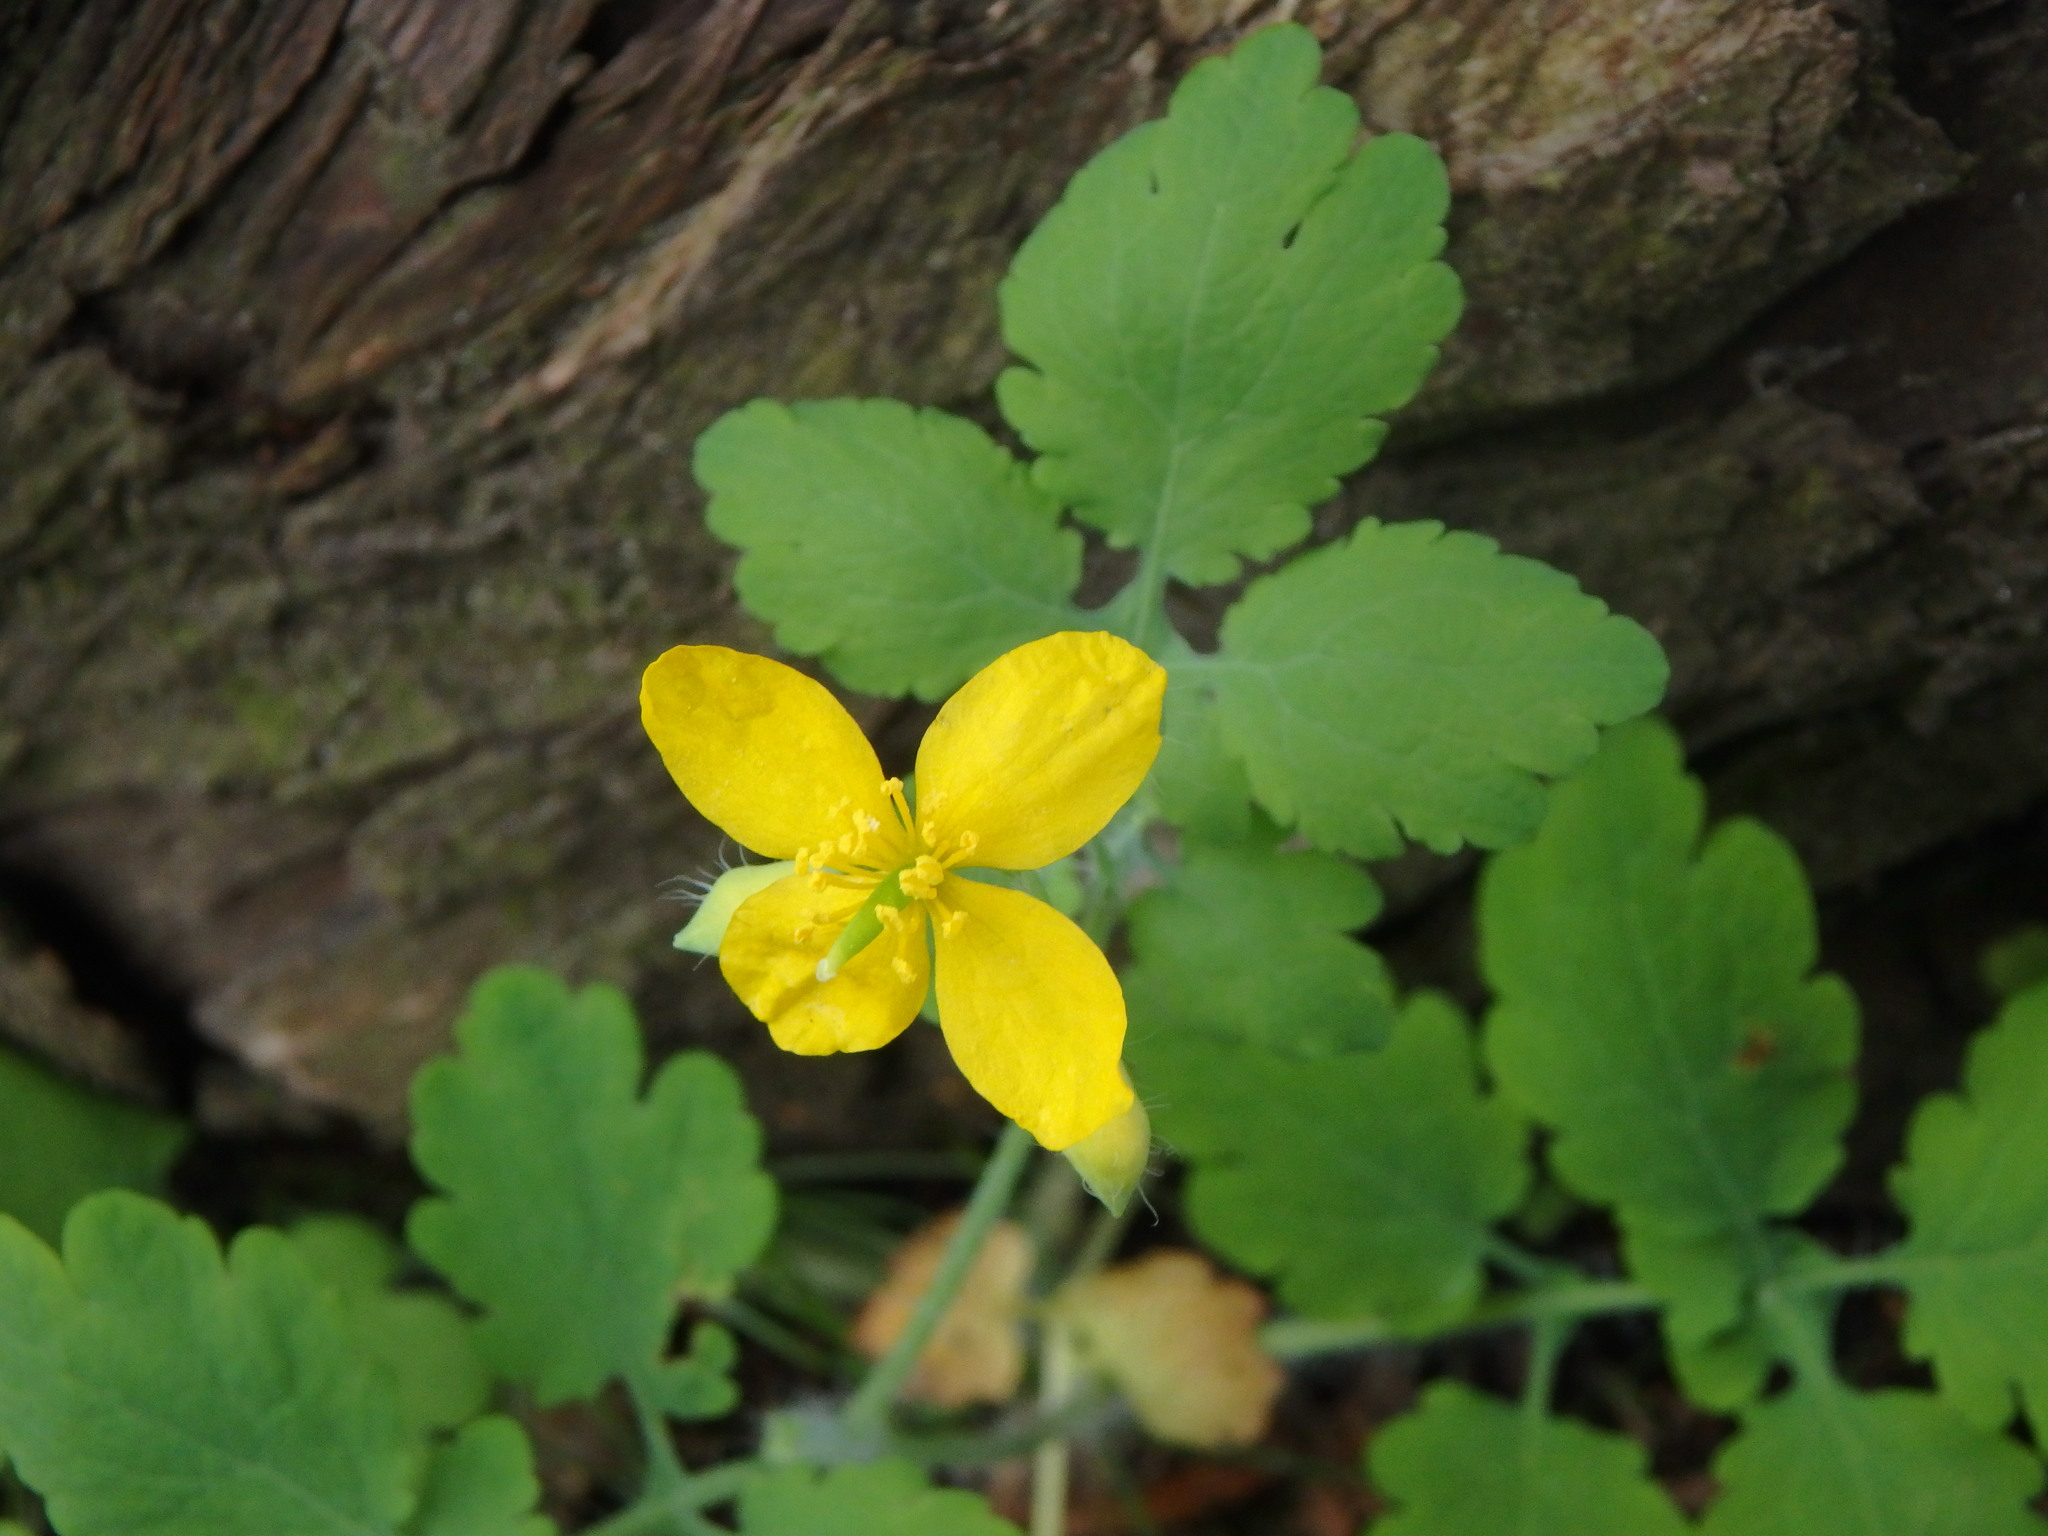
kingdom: Plantae
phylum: Tracheophyta
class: Magnoliopsida
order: Ranunculales
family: Papaveraceae
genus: Chelidonium
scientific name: Chelidonium majus
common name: Greater celandine
